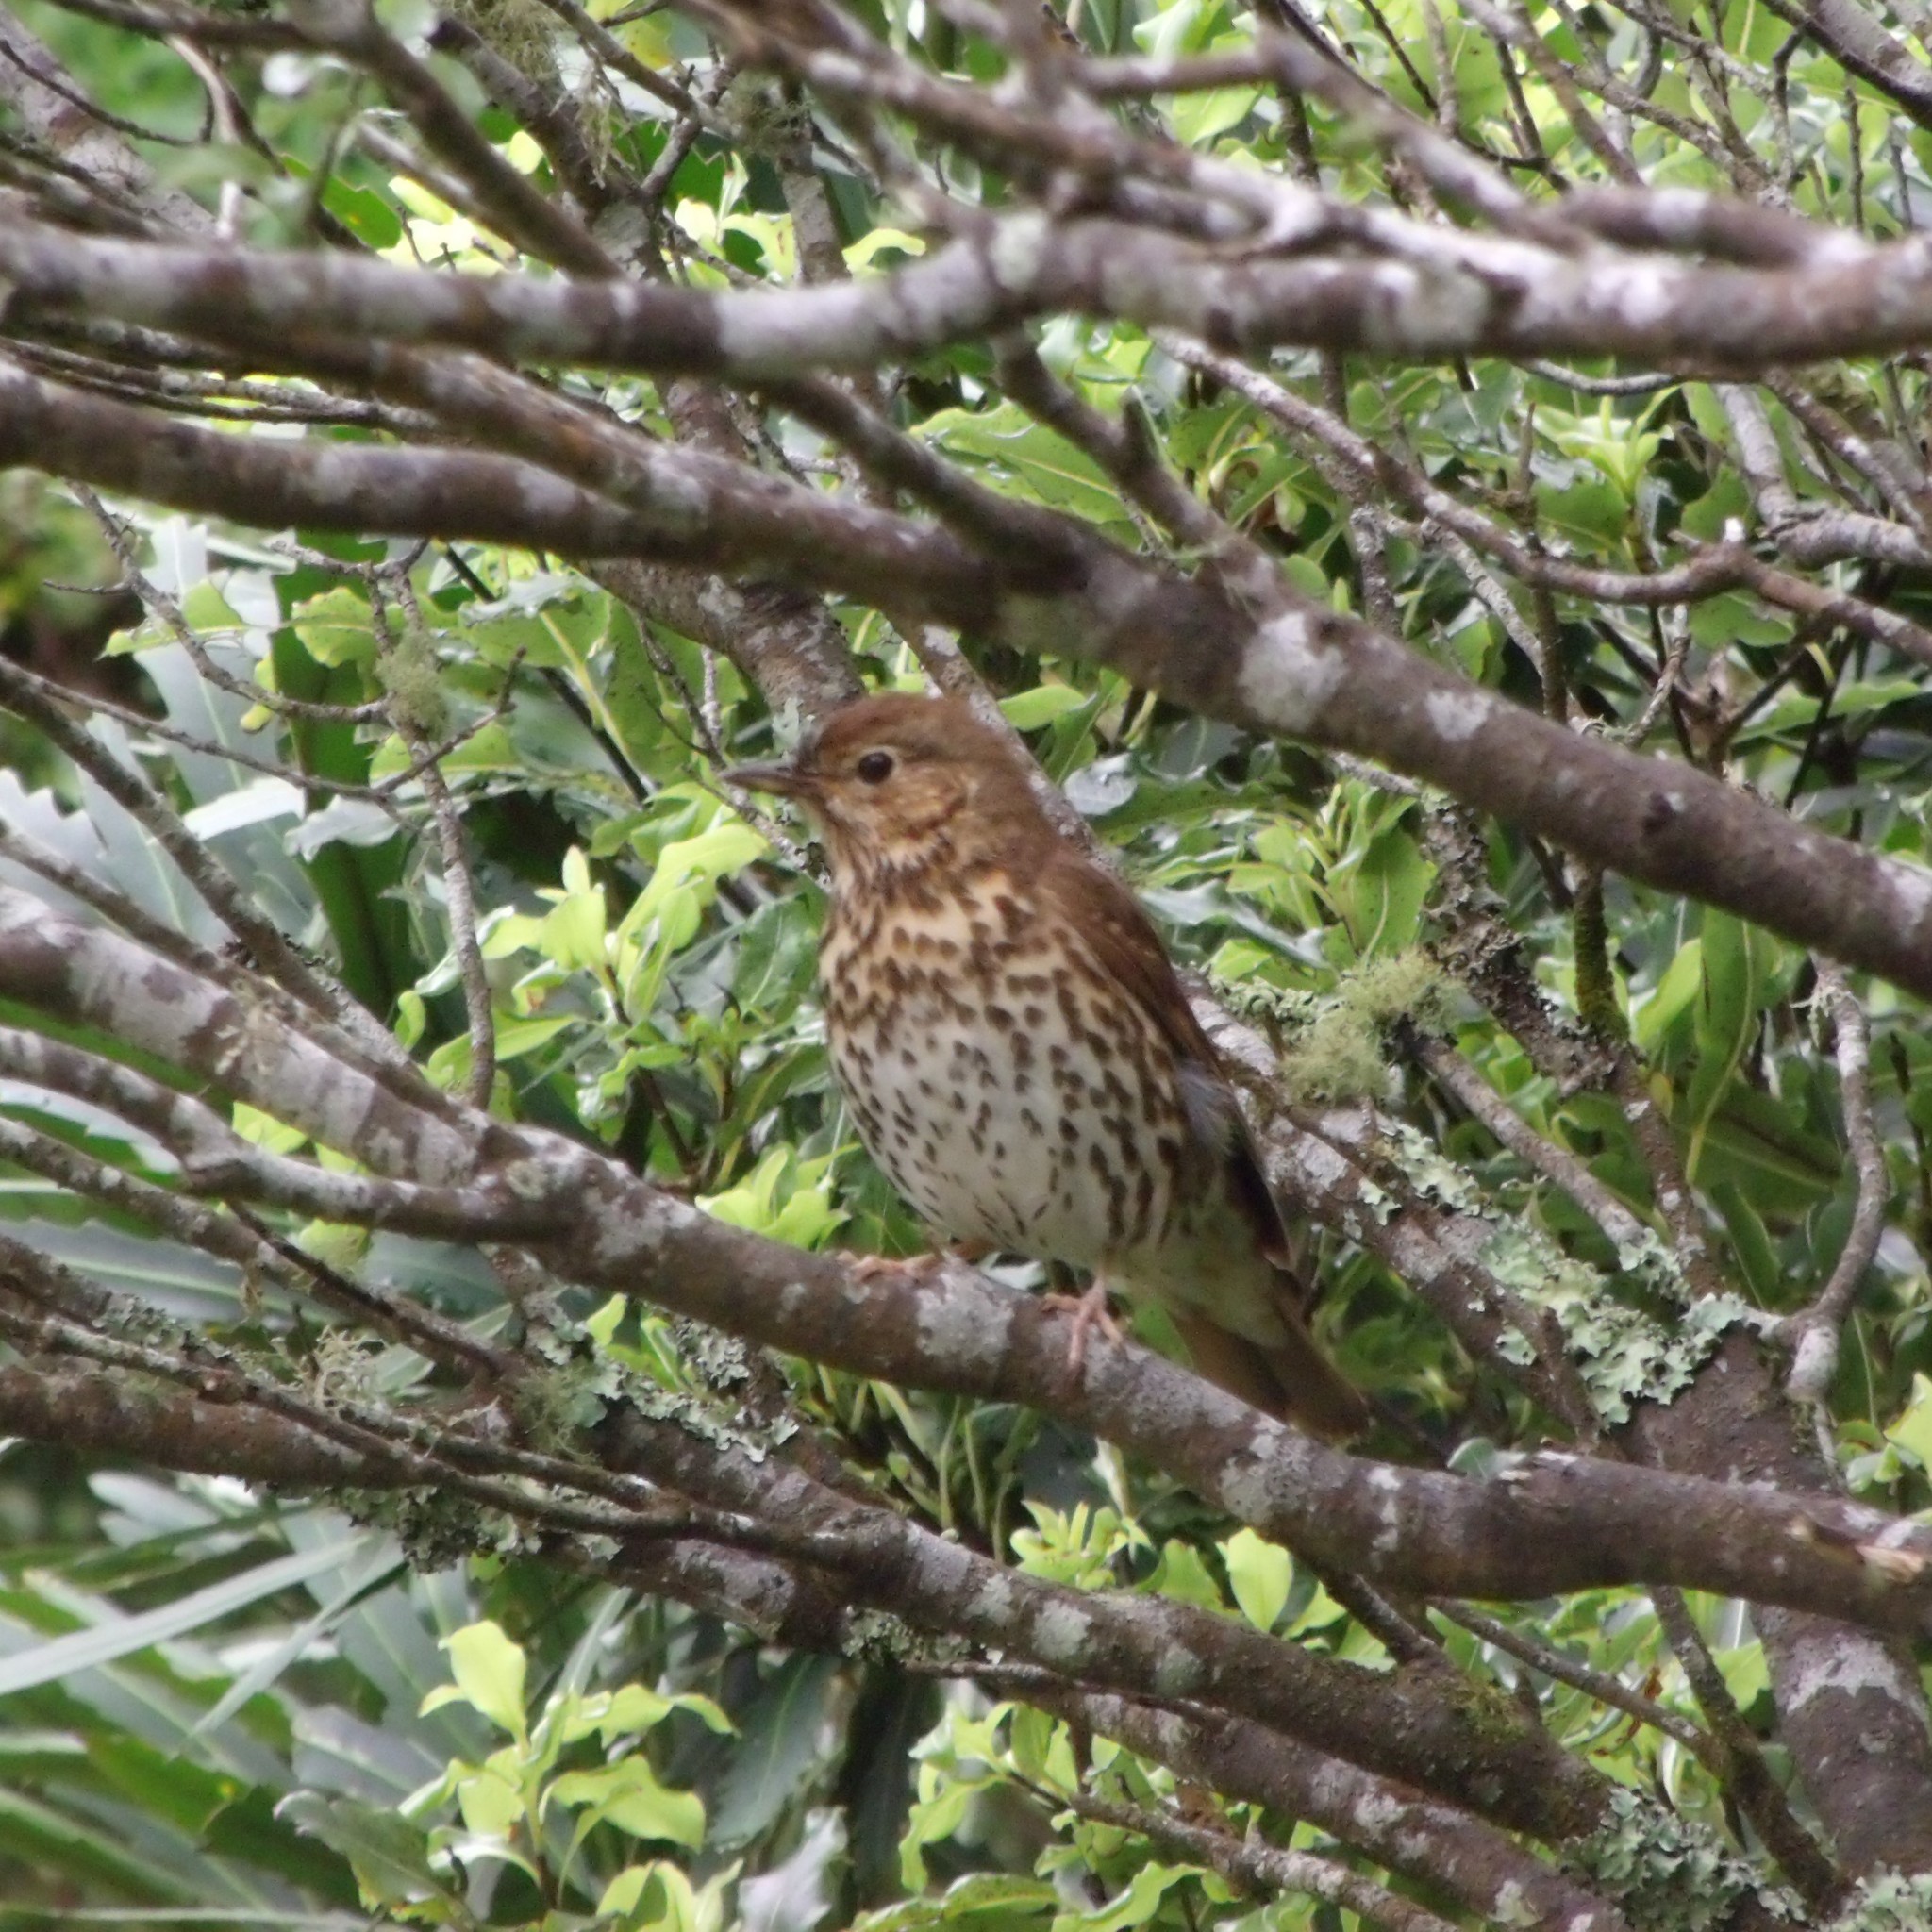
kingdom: Animalia
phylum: Chordata
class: Aves
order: Passeriformes
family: Turdidae
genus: Turdus
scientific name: Turdus philomelos
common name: Song thrush
